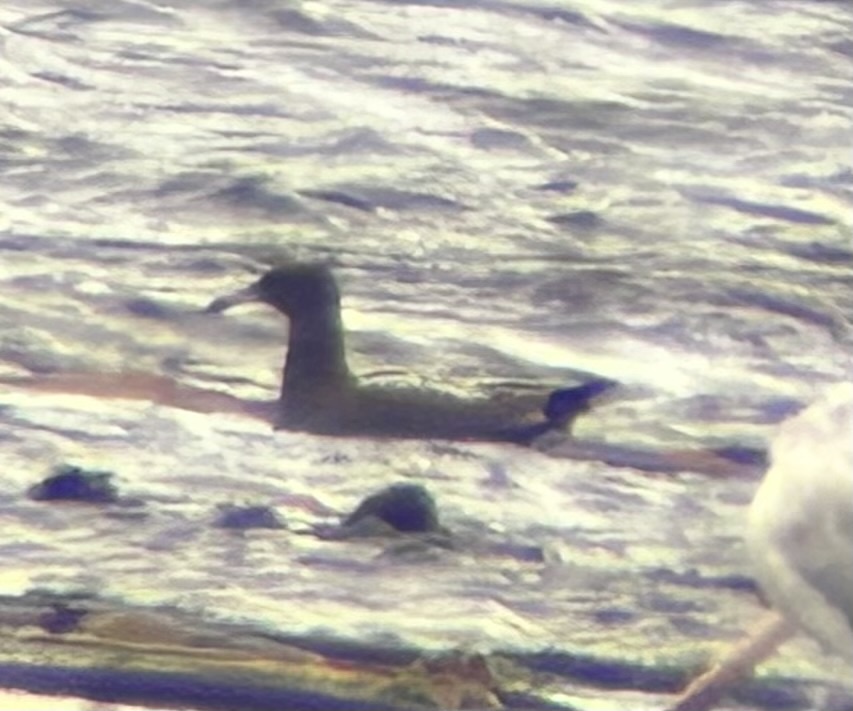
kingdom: Animalia
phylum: Chordata
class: Aves
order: Charadriiformes
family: Laridae
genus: Larus
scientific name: Larus heermanni
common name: Heermann's gull
